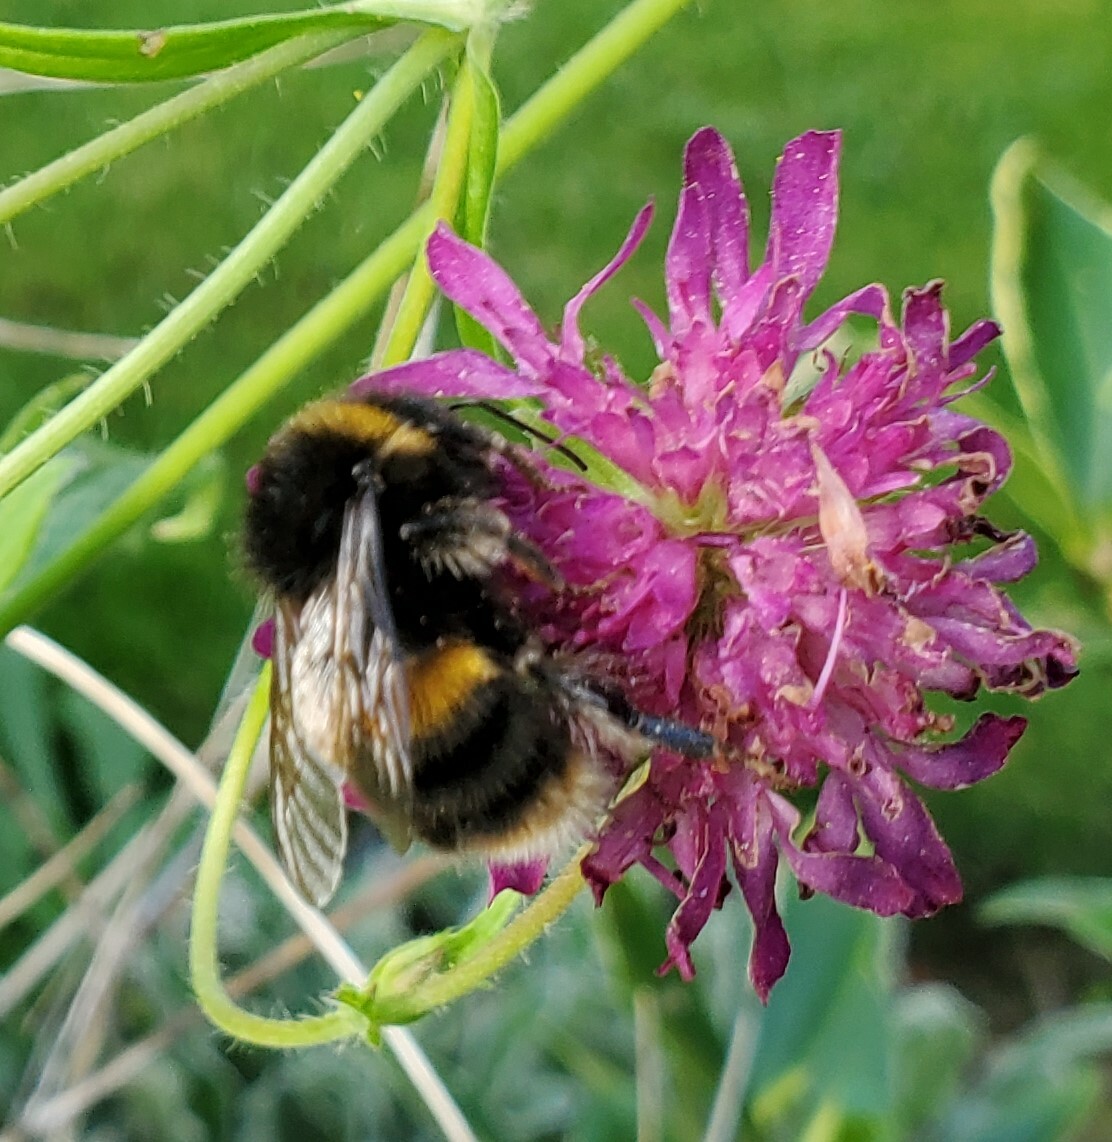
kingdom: Animalia
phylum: Arthropoda
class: Insecta
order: Hymenoptera
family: Apidae
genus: Bombus
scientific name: Bombus terrestris
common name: Buff-tailed bumblebee
